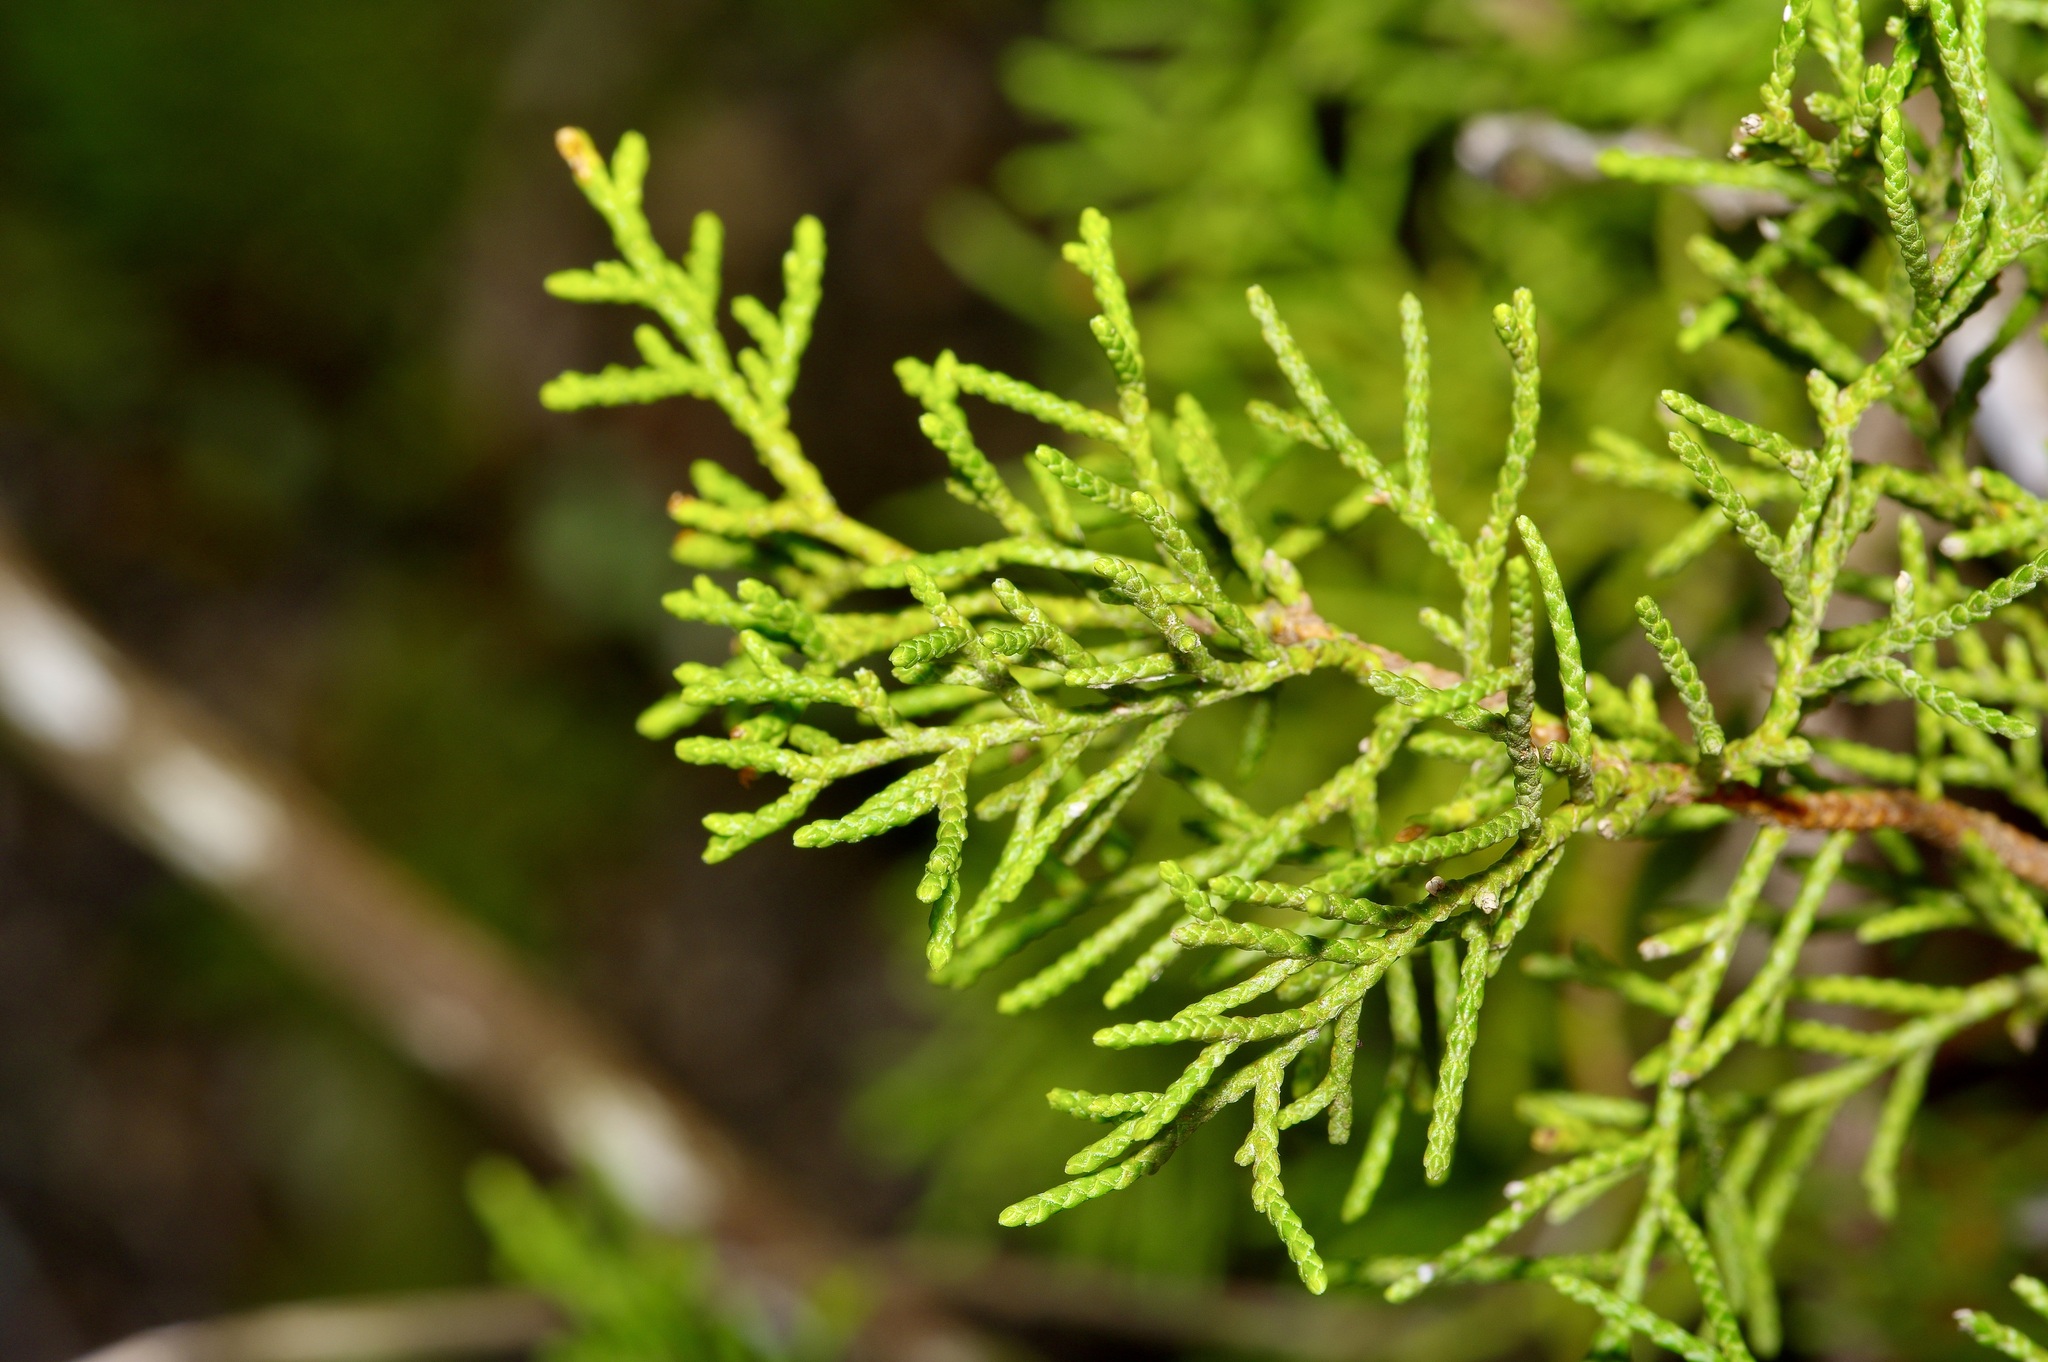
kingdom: Plantae
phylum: Tracheophyta
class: Pinopsida
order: Pinales
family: Cupressaceae
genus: Juniperus
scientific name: Juniperus ashei
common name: Mexican juniper
